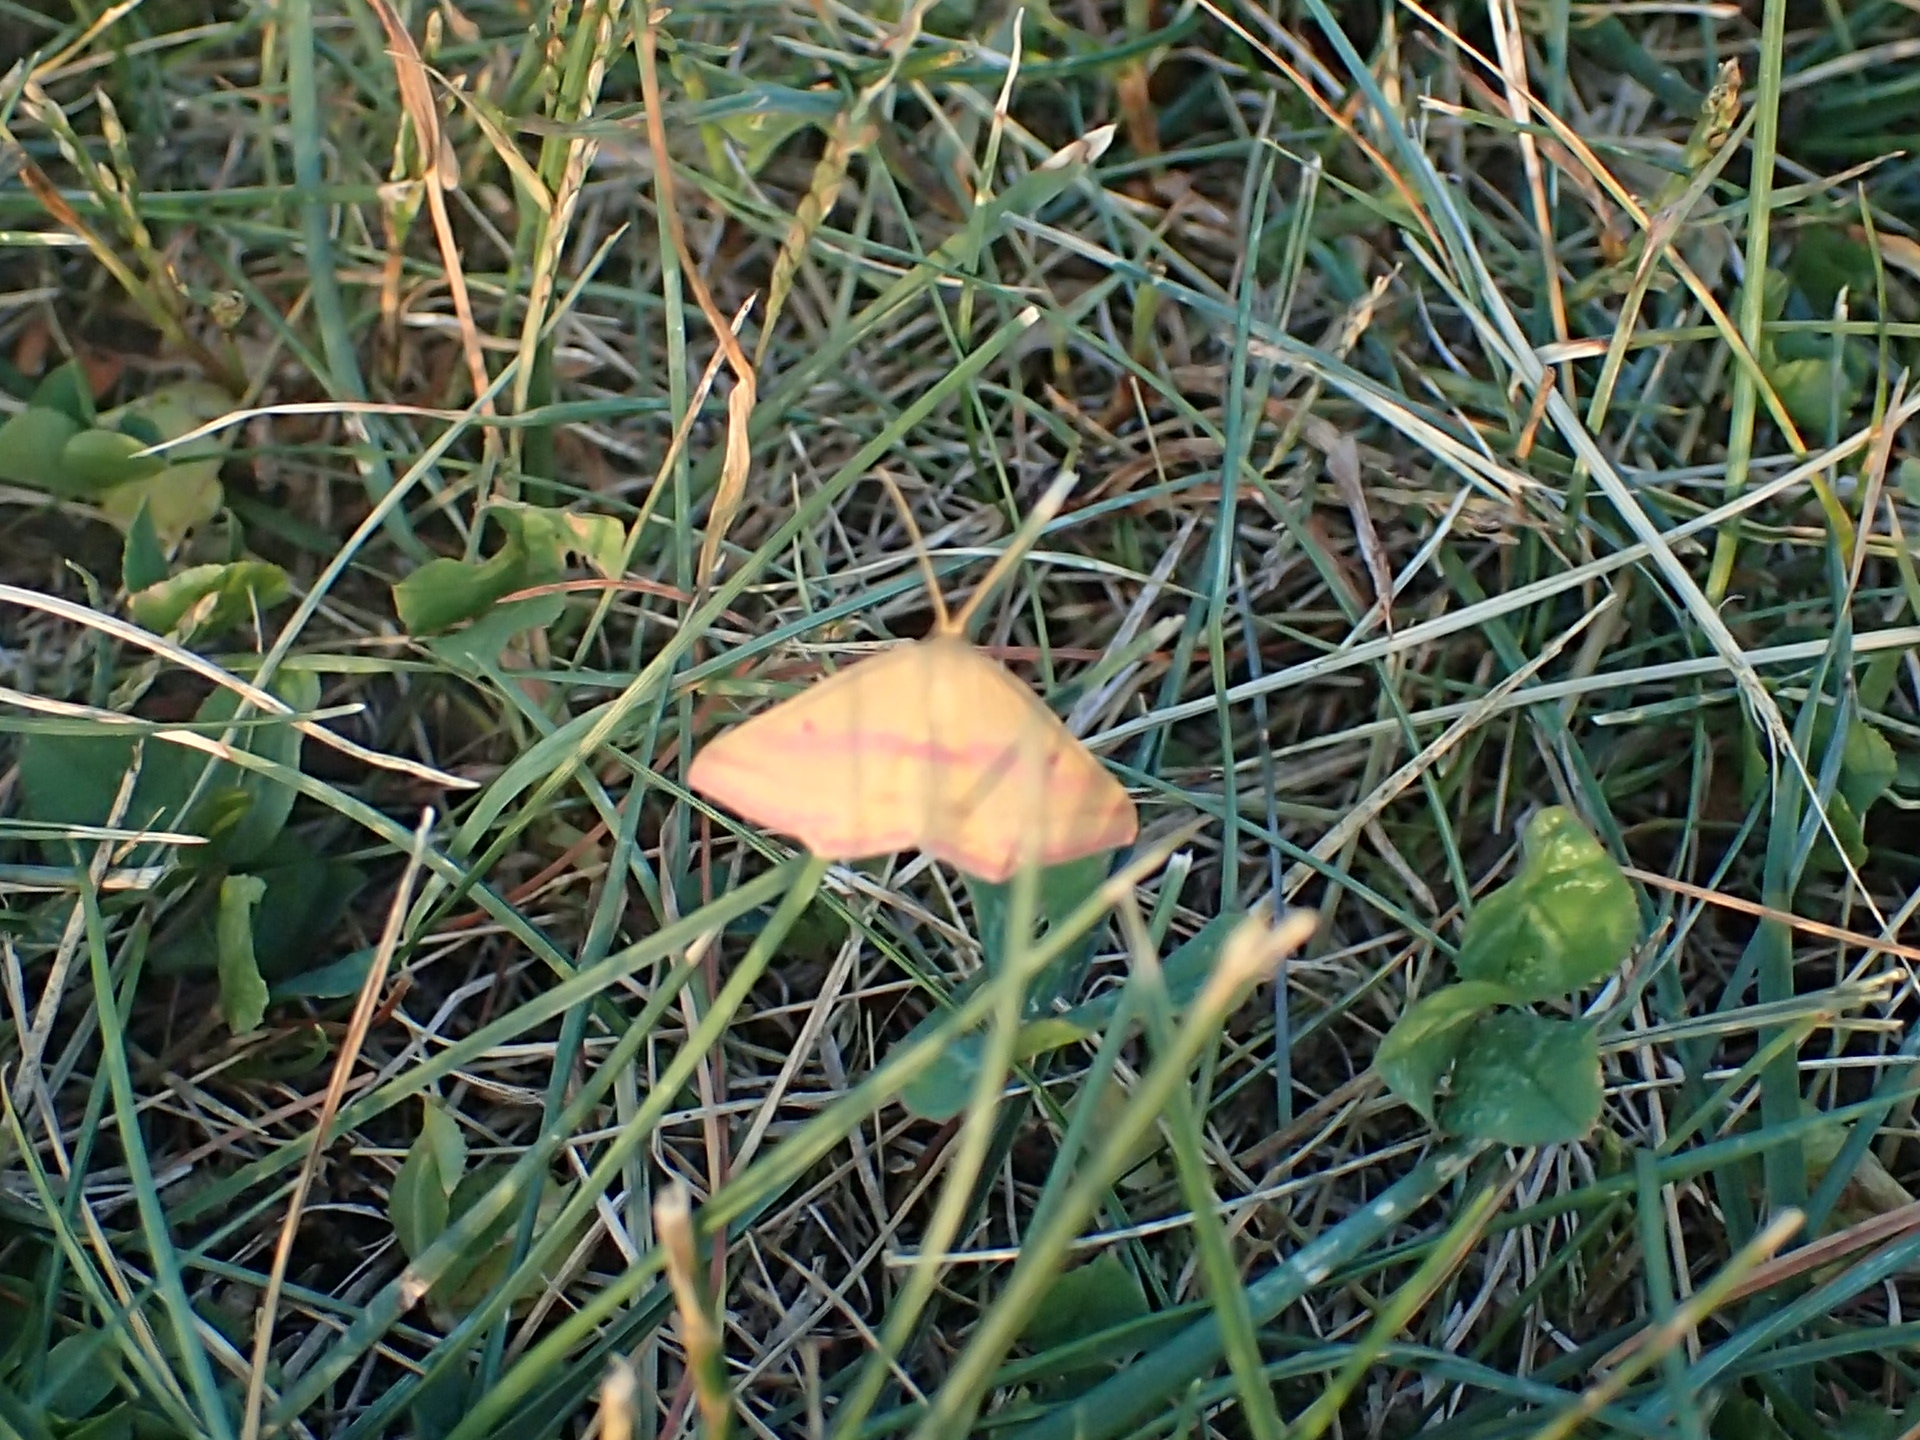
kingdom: Animalia
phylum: Arthropoda
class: Insecta
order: Lepidoptera
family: Geometridae
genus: Haematopis
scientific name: Haematopis grataria
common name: Chickweed geometer
